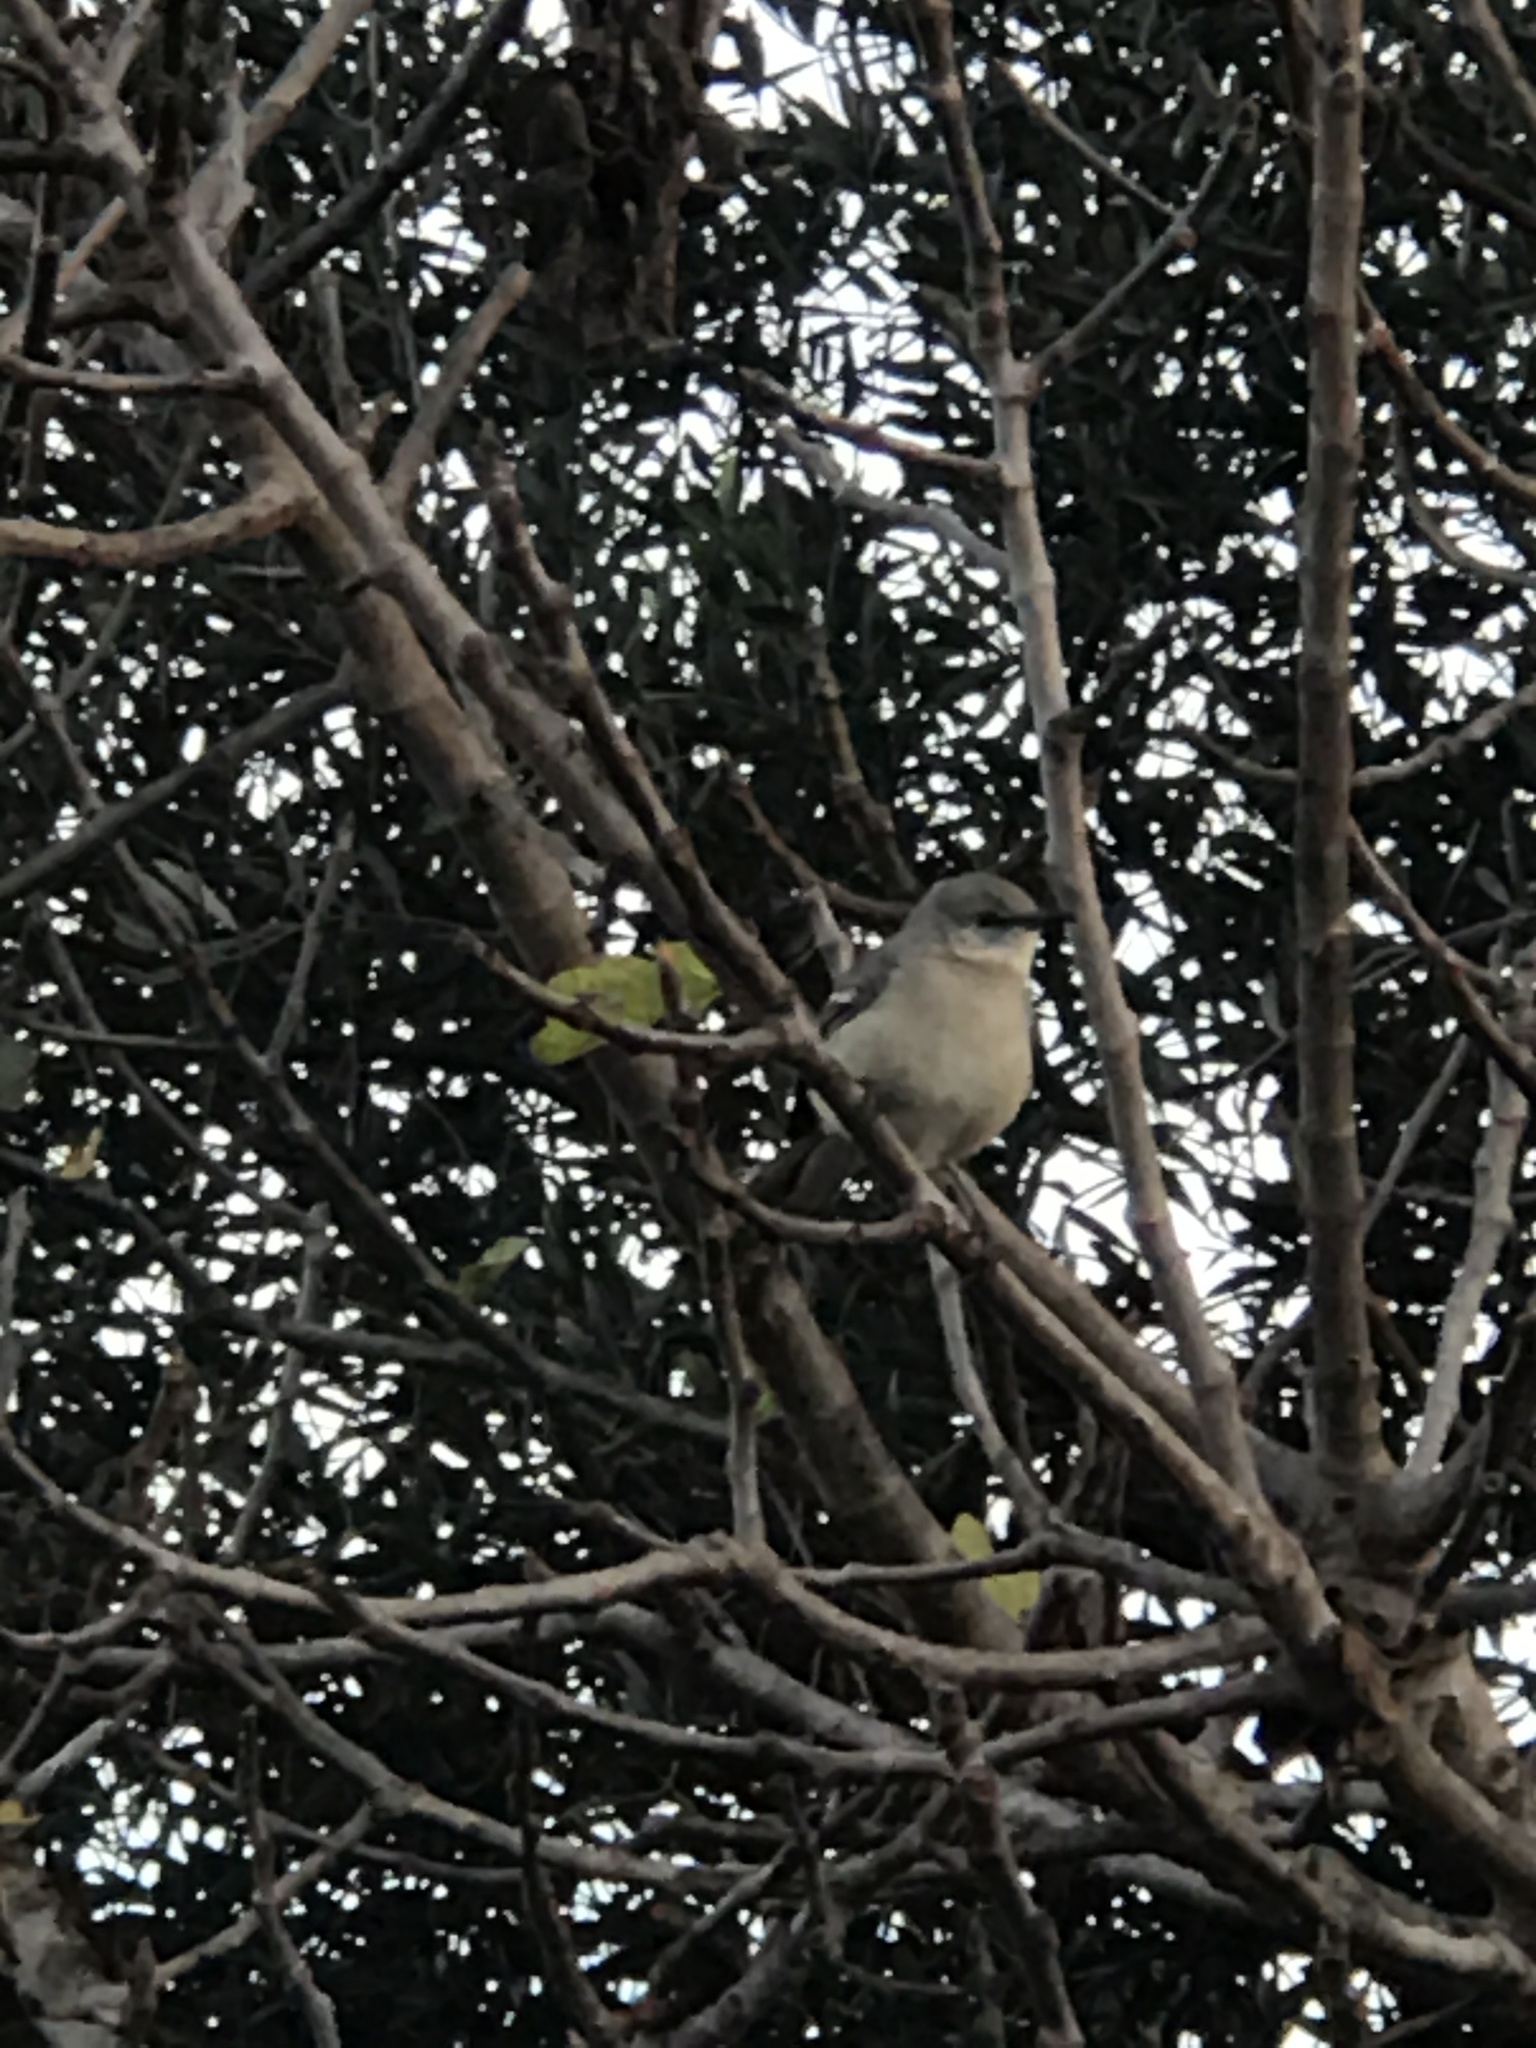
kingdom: Animalia
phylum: Chordata
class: Aves
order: Passeriformes
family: Mimidae
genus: Mimus
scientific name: Mimus polyglottos
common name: Northern mockingbird
